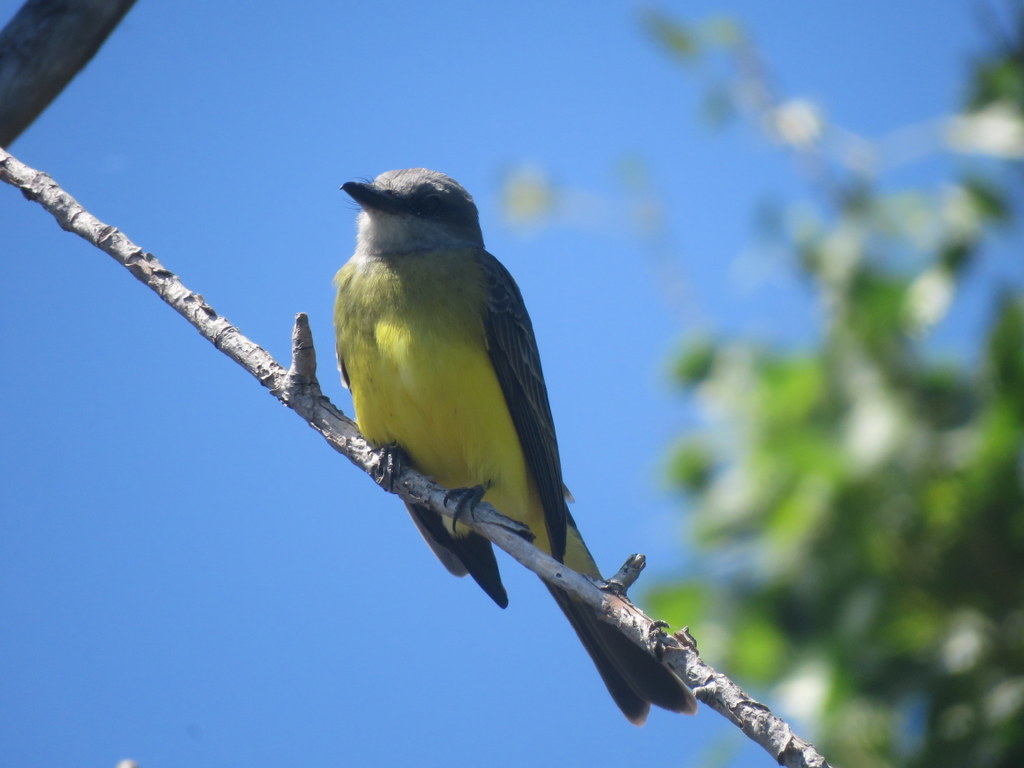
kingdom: Animalia
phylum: Chordata
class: Aves
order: Passeriformes
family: Tyrannidae
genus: Tyrannus
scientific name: Tyrannus melancholicus
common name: Tropical kingbird
